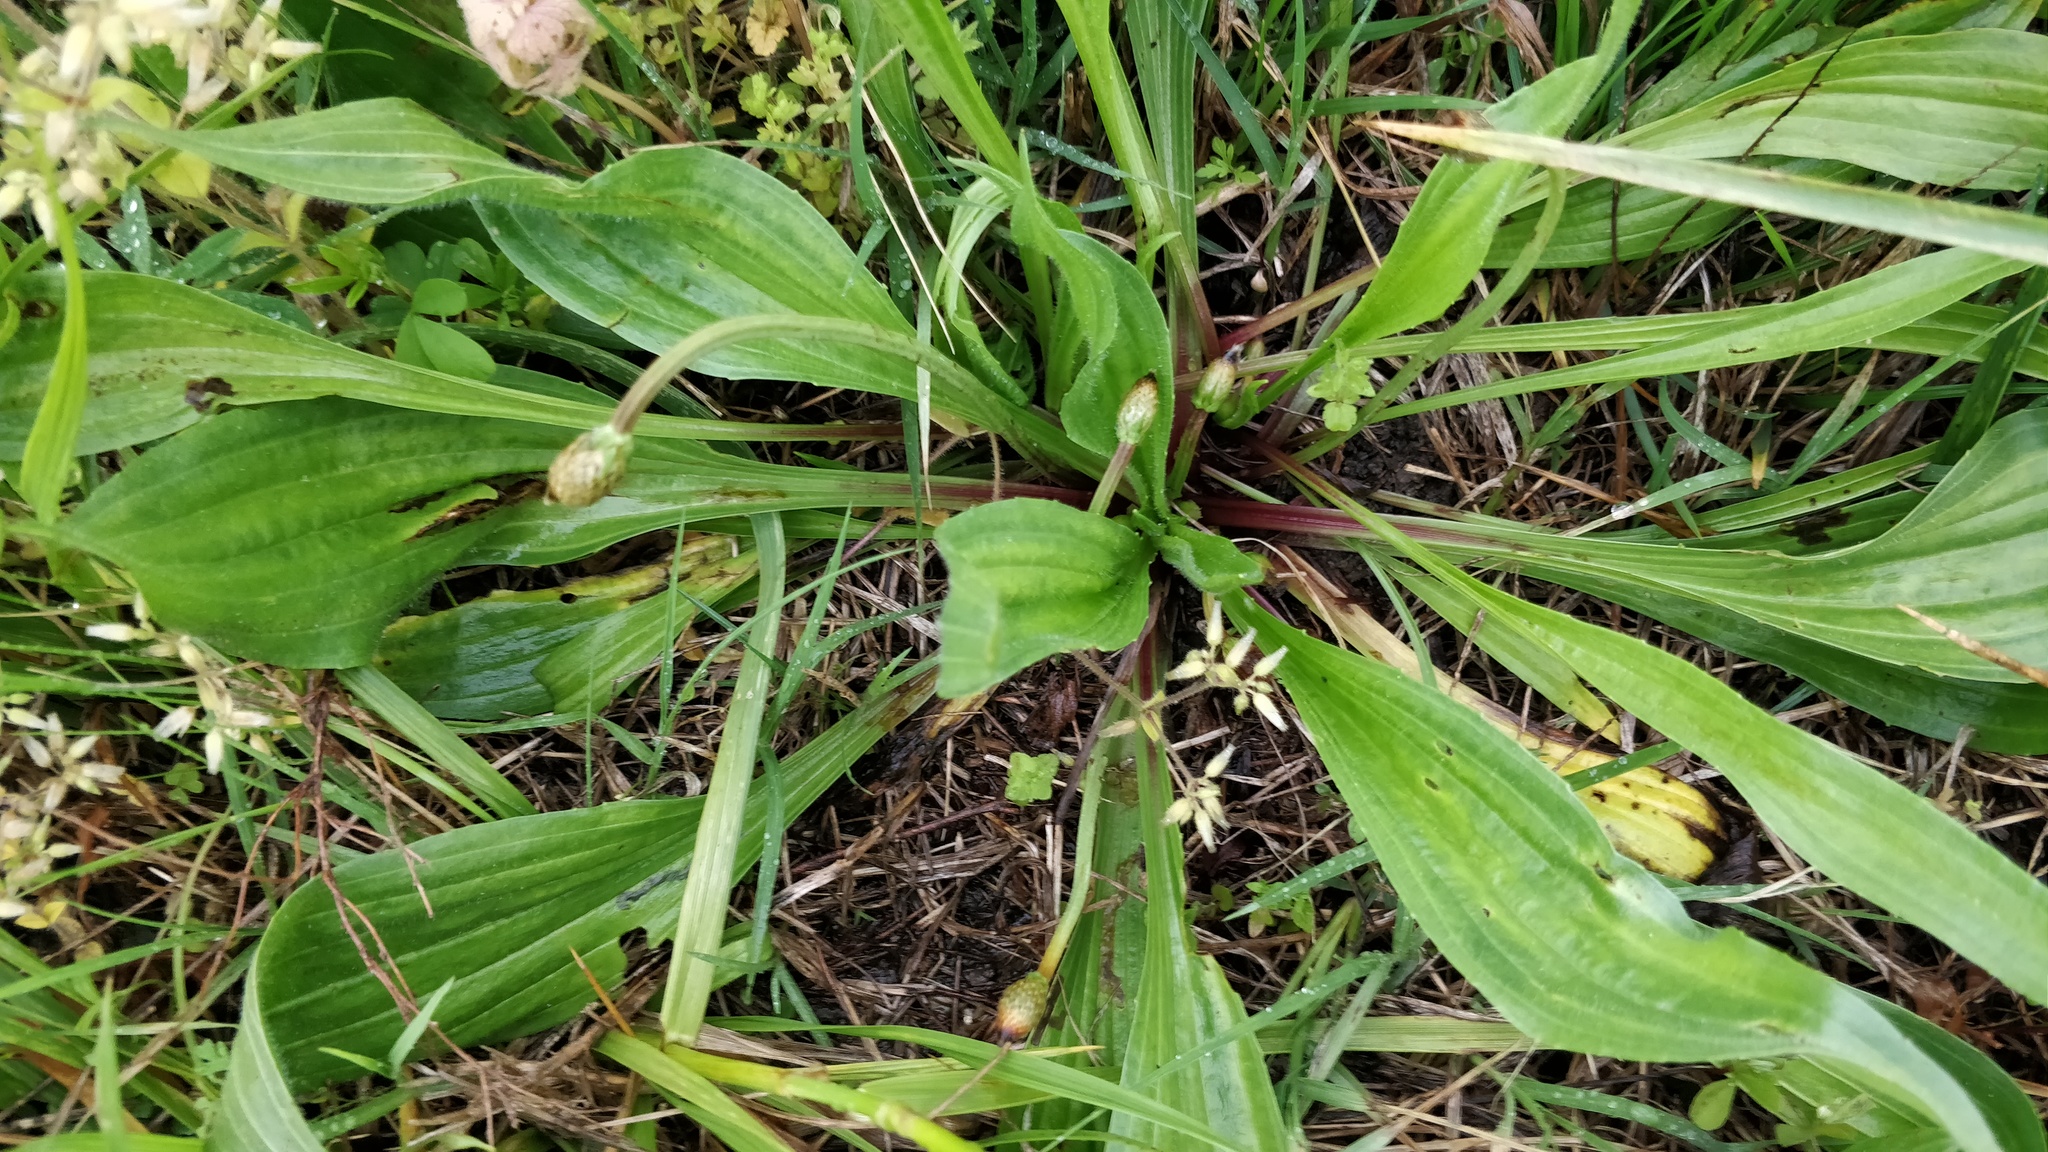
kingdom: Plantae
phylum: Tracheophyta
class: Magnoliopsida
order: Lamiales
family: Plantaginaceae
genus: Plantago
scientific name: Plantago lanceolata
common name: Ribwort plantain
